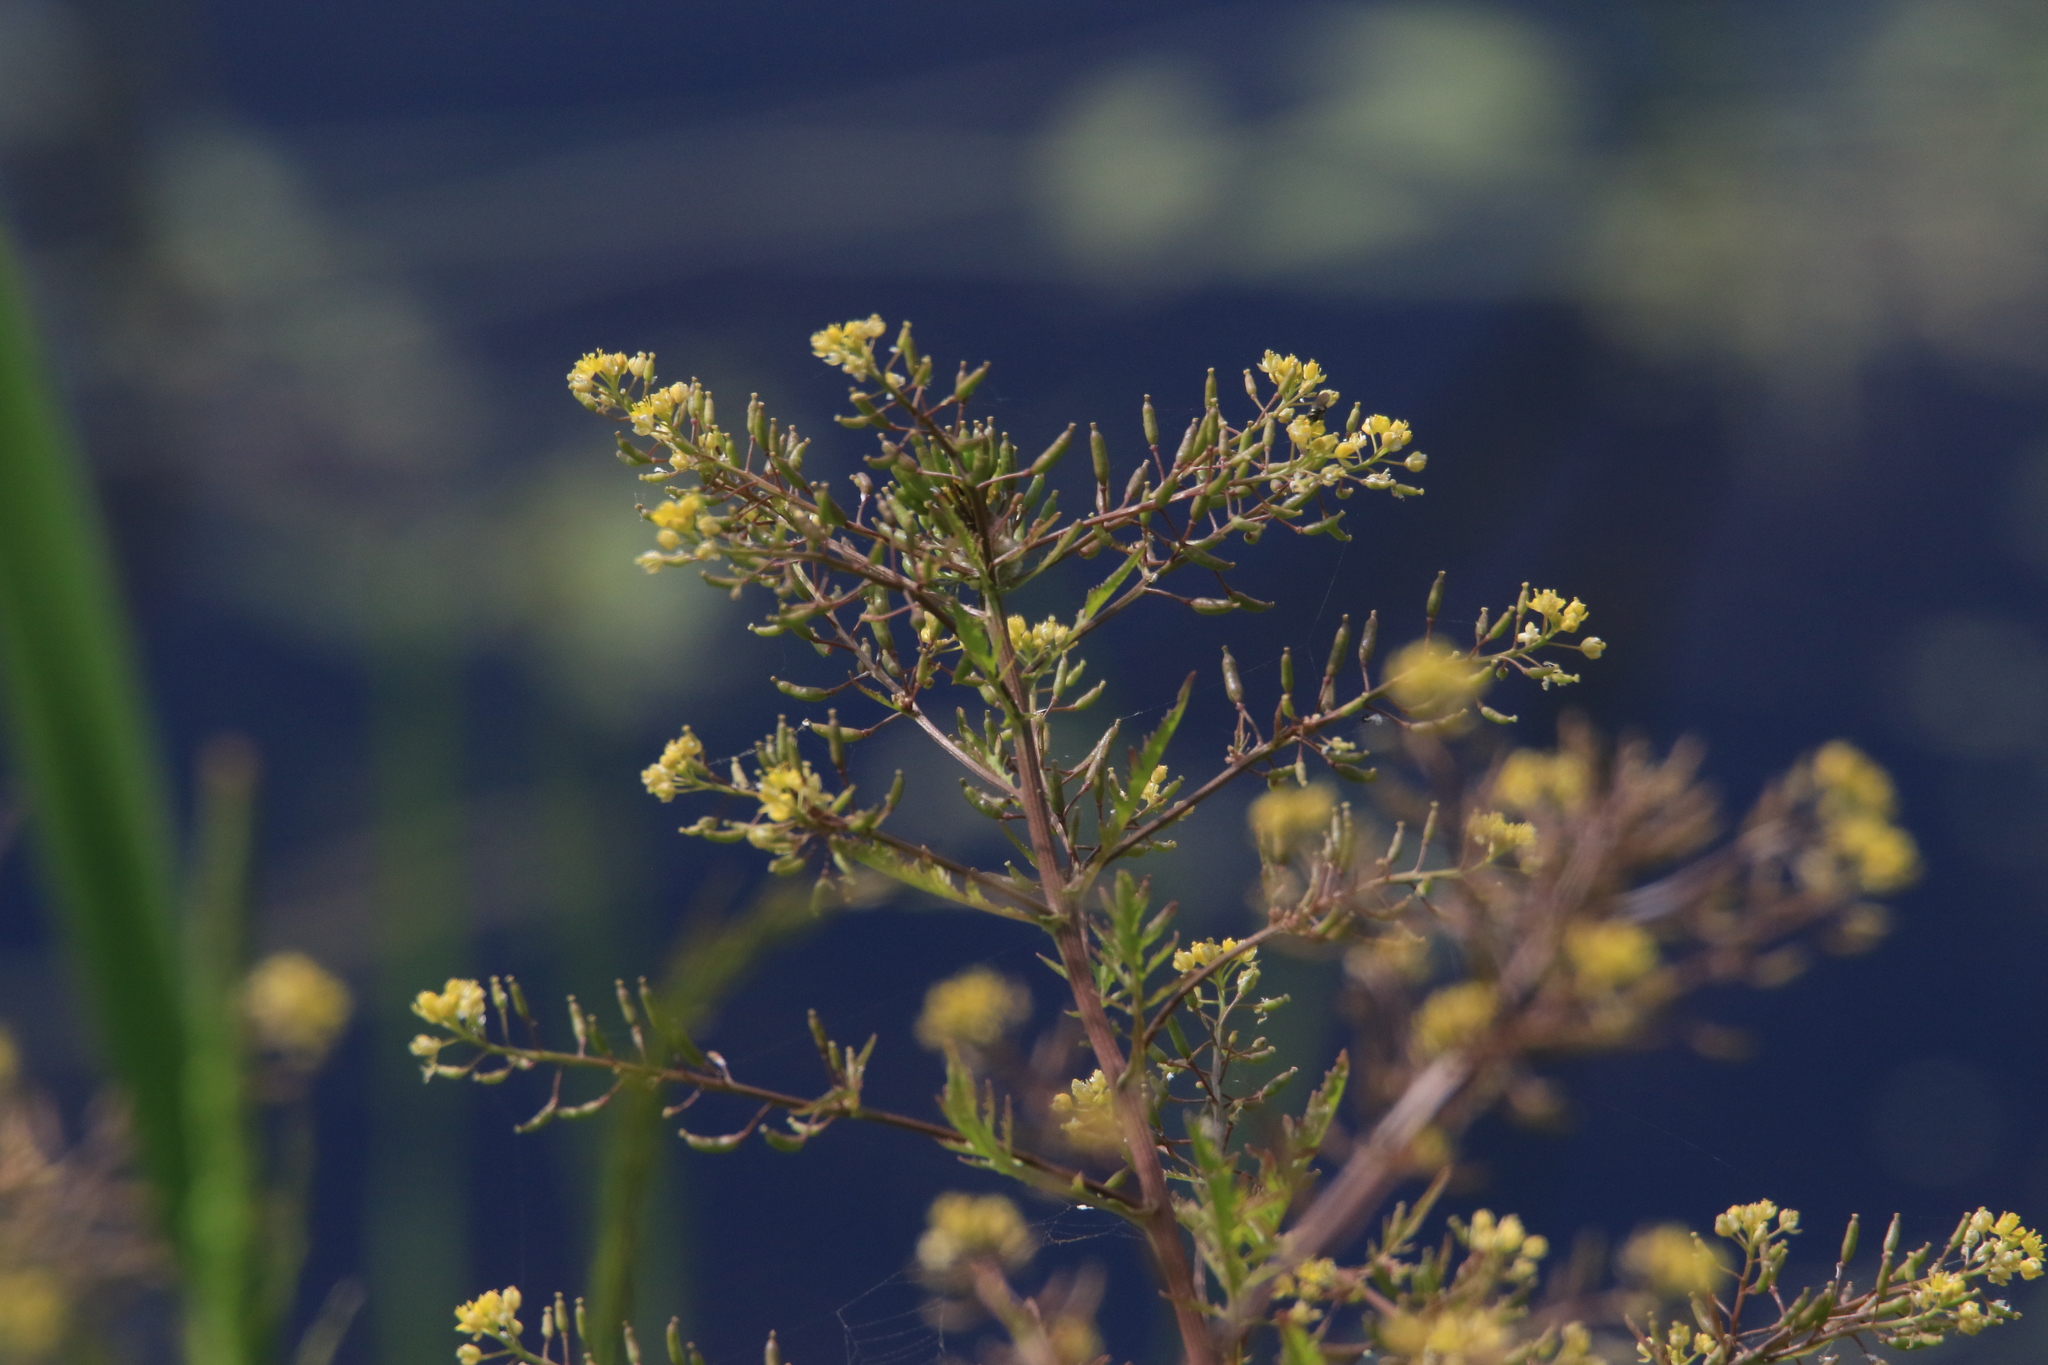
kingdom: Plantae
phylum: Tracheophyta
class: Magnoliopsida
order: Brassicales
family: Brassicaceae
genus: Rorippa
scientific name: Rorippa palustris
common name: Marsh yellow-cress
